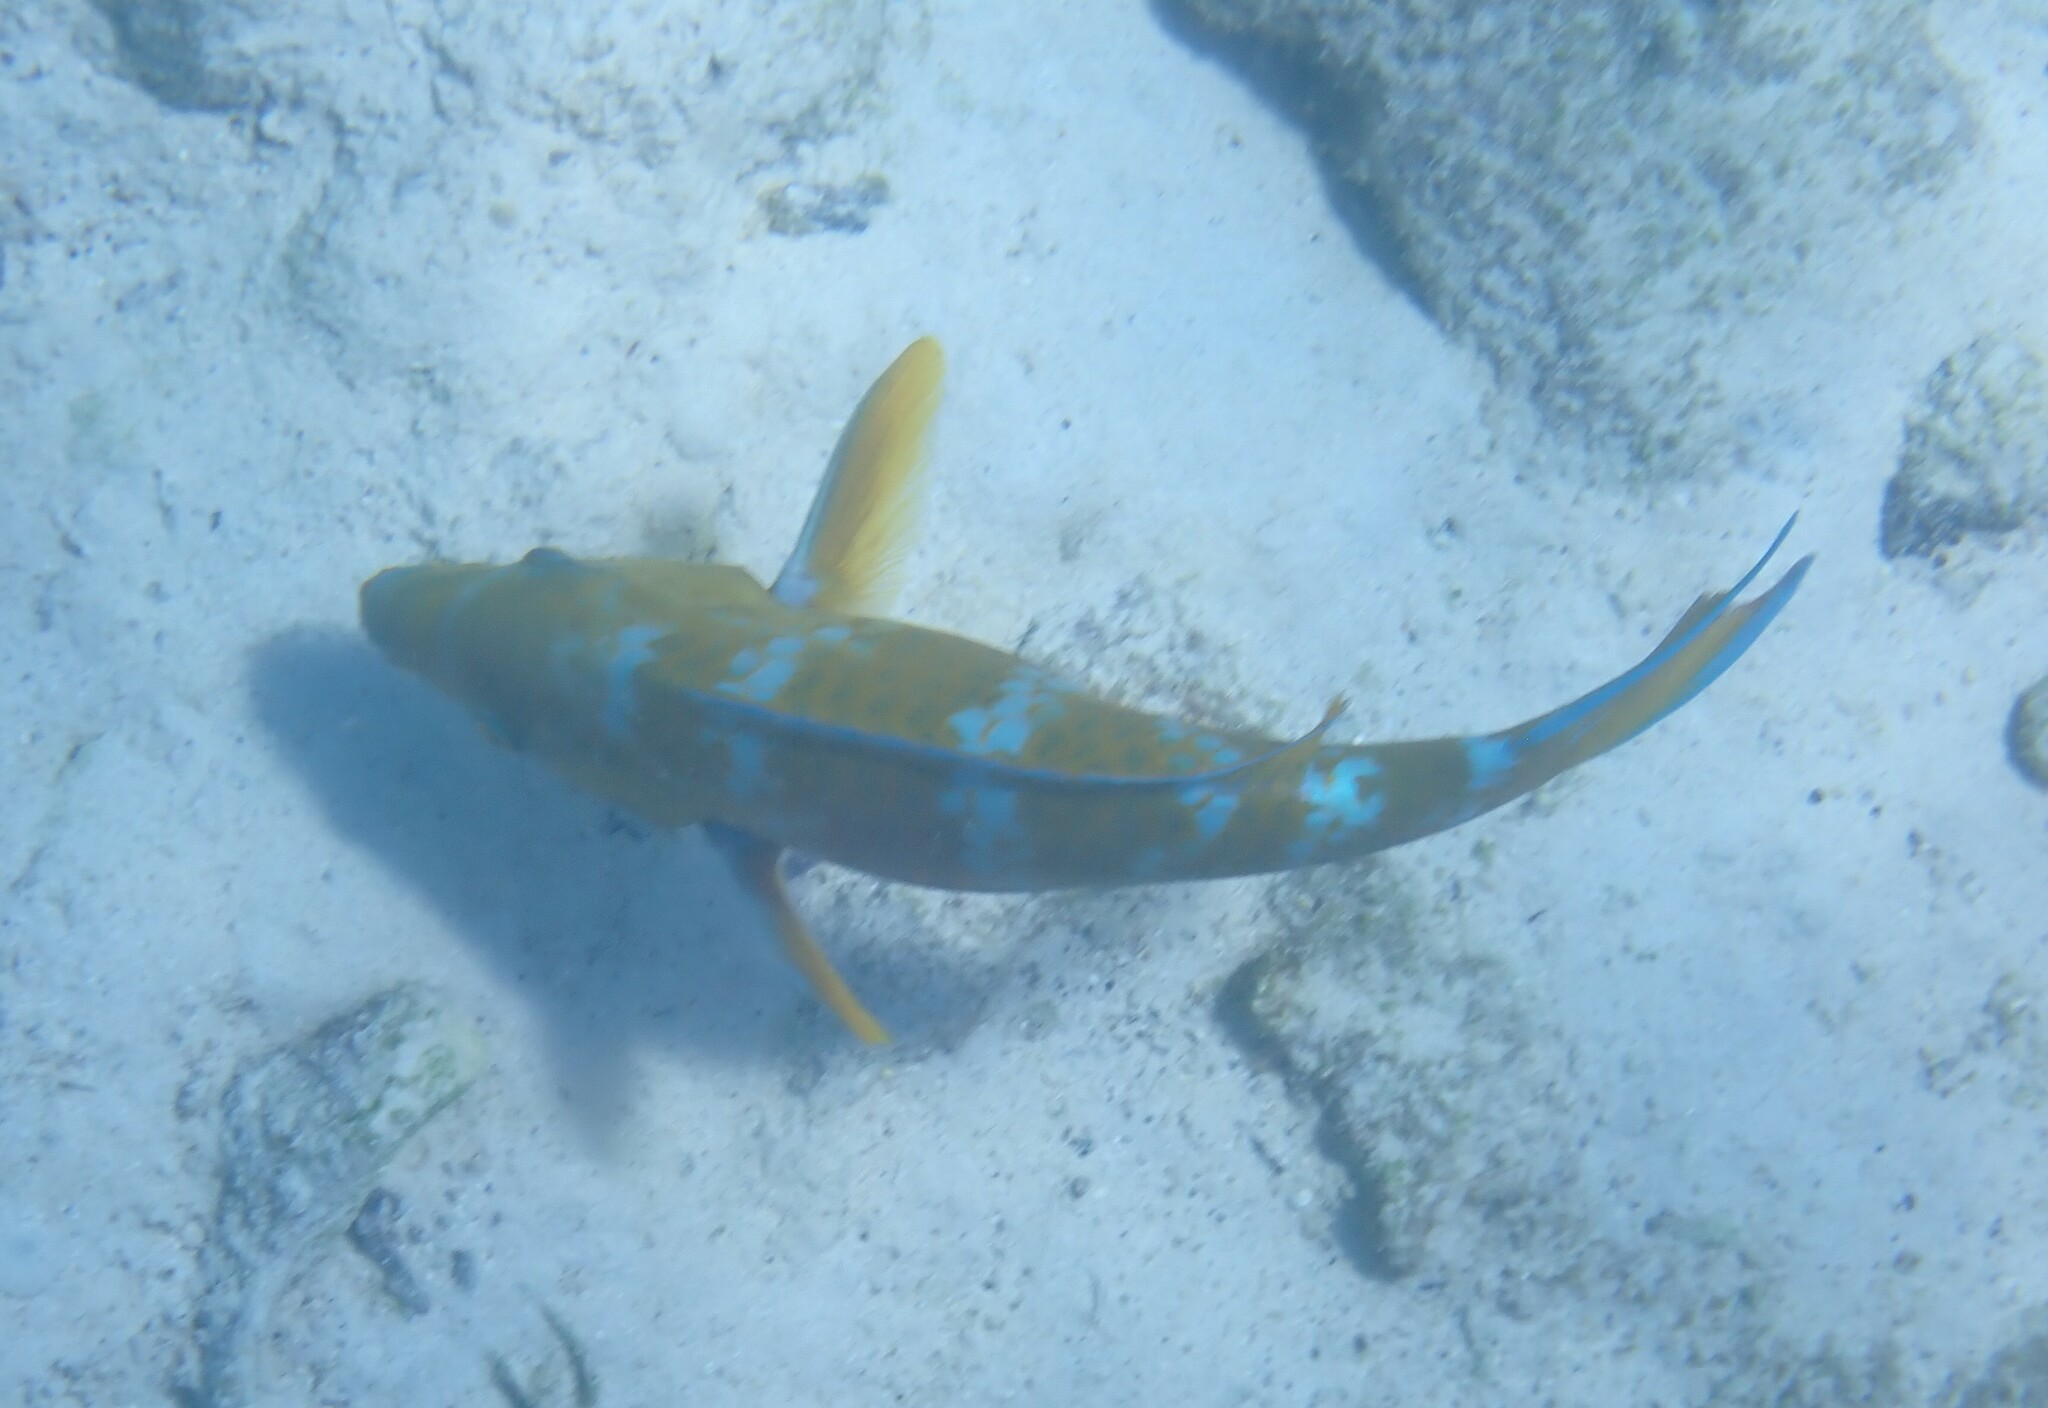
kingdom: Animalia
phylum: Chordata
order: Perciformes
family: Scaridae
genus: Scarus
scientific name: Scarus ghobban
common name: Blue-barred parrotfish
